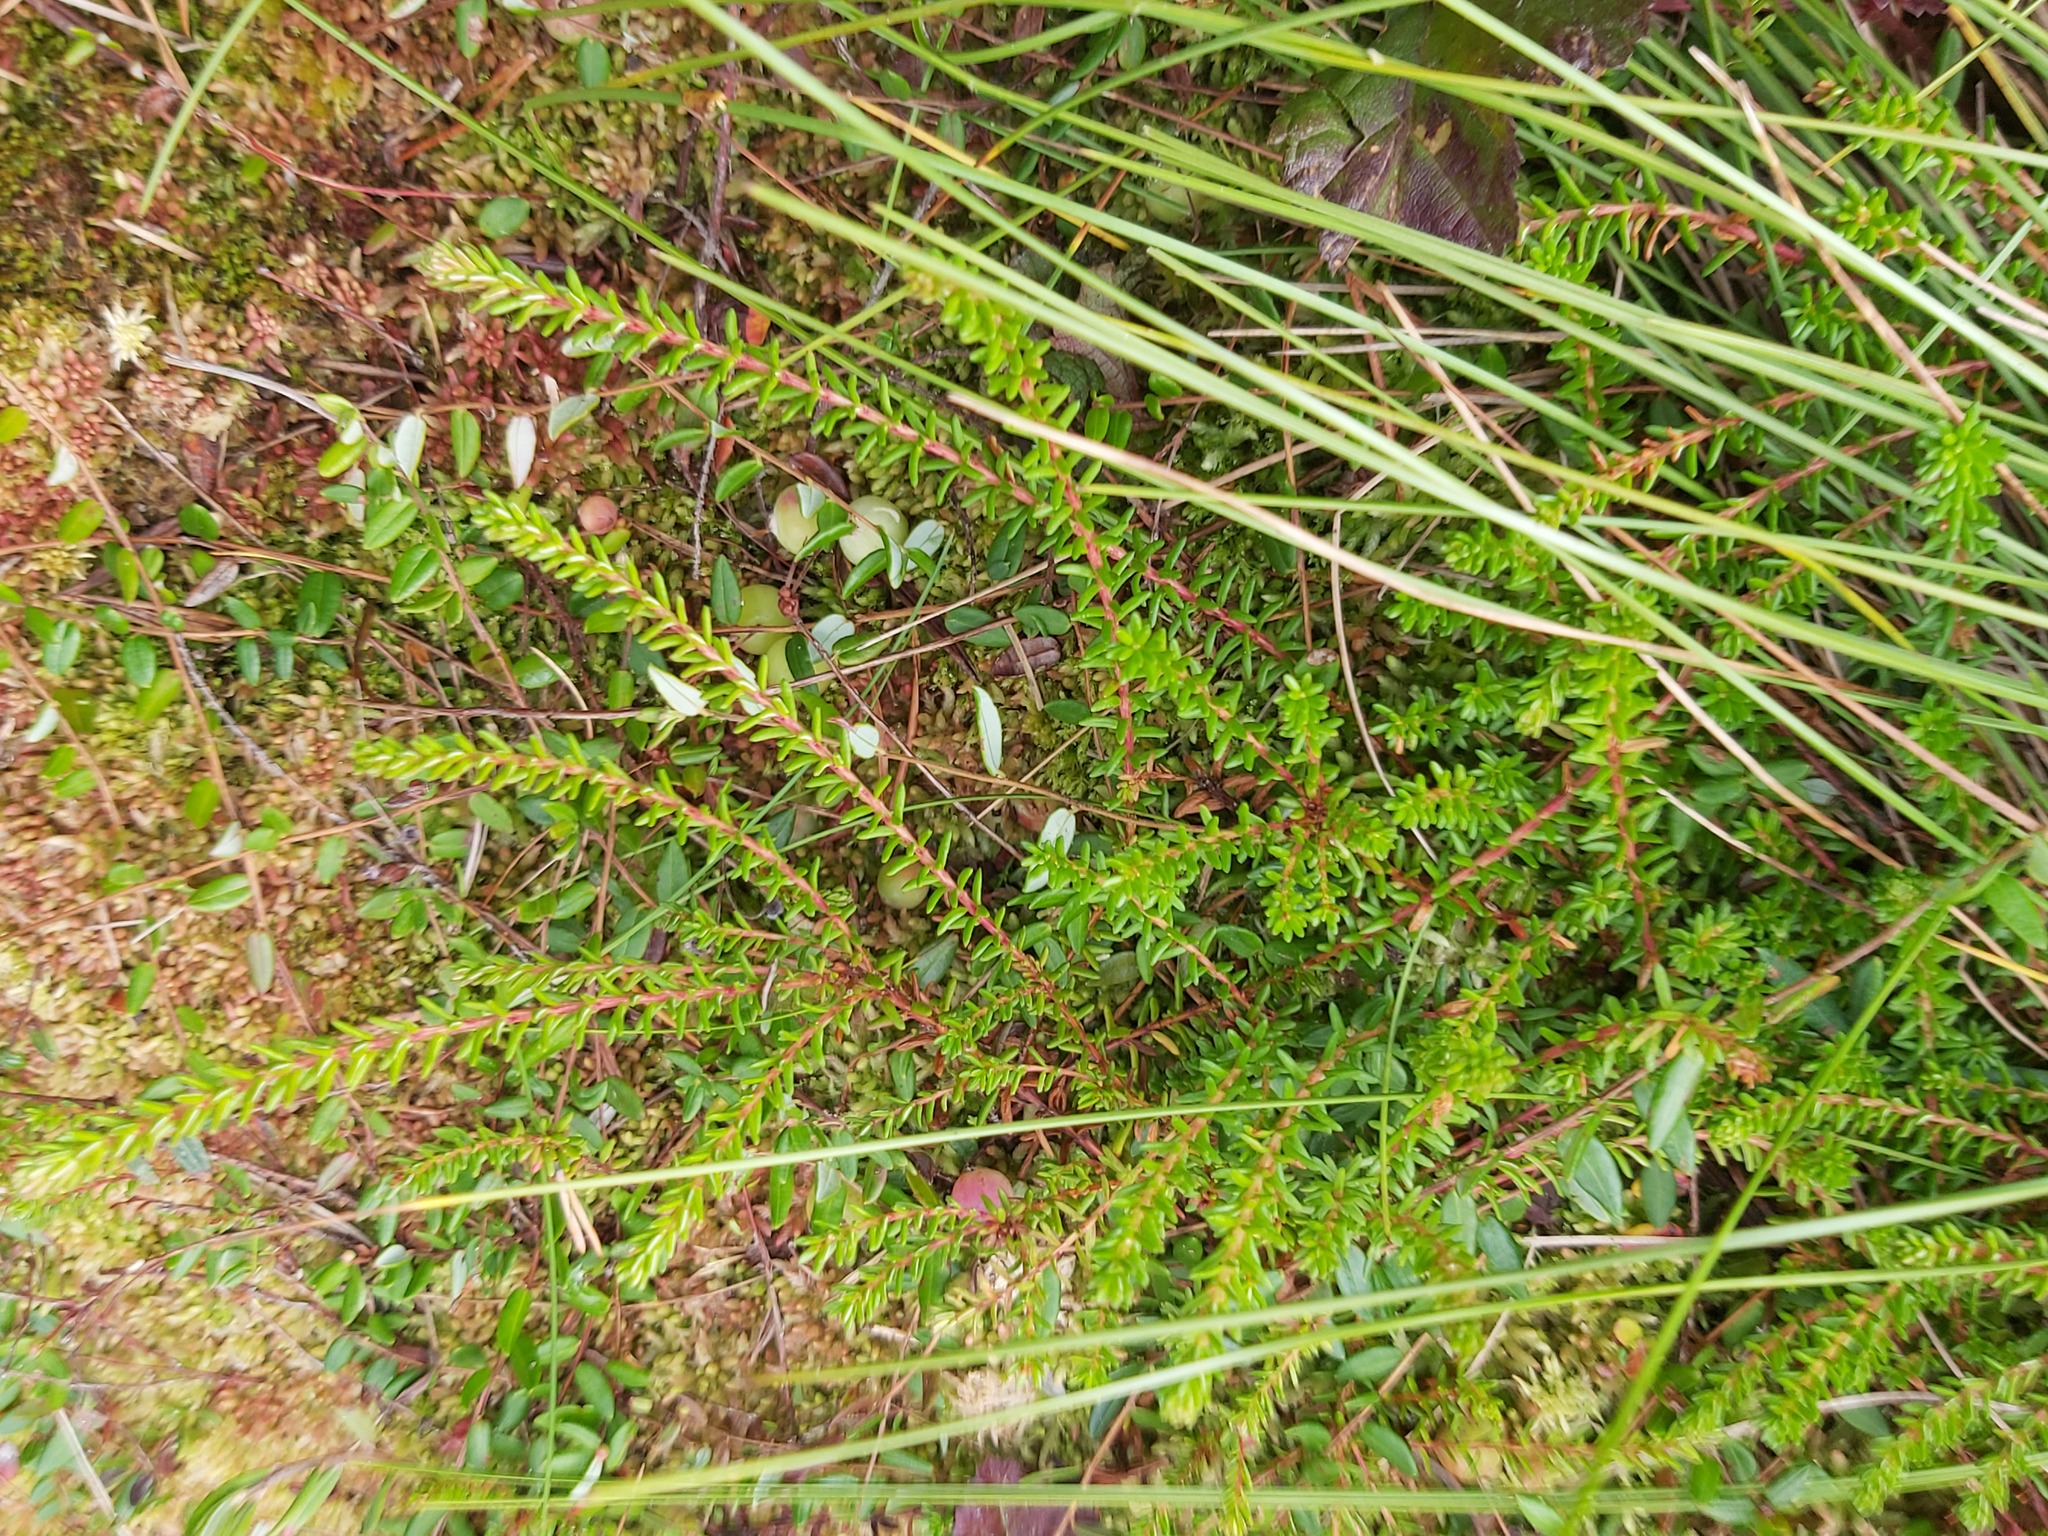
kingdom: Plantae
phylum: Tracheophyta
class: Magnoliopsida
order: Ericales
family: Ericaceae
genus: Empetrum
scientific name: Empetrum nigrum
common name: Black crowberry
